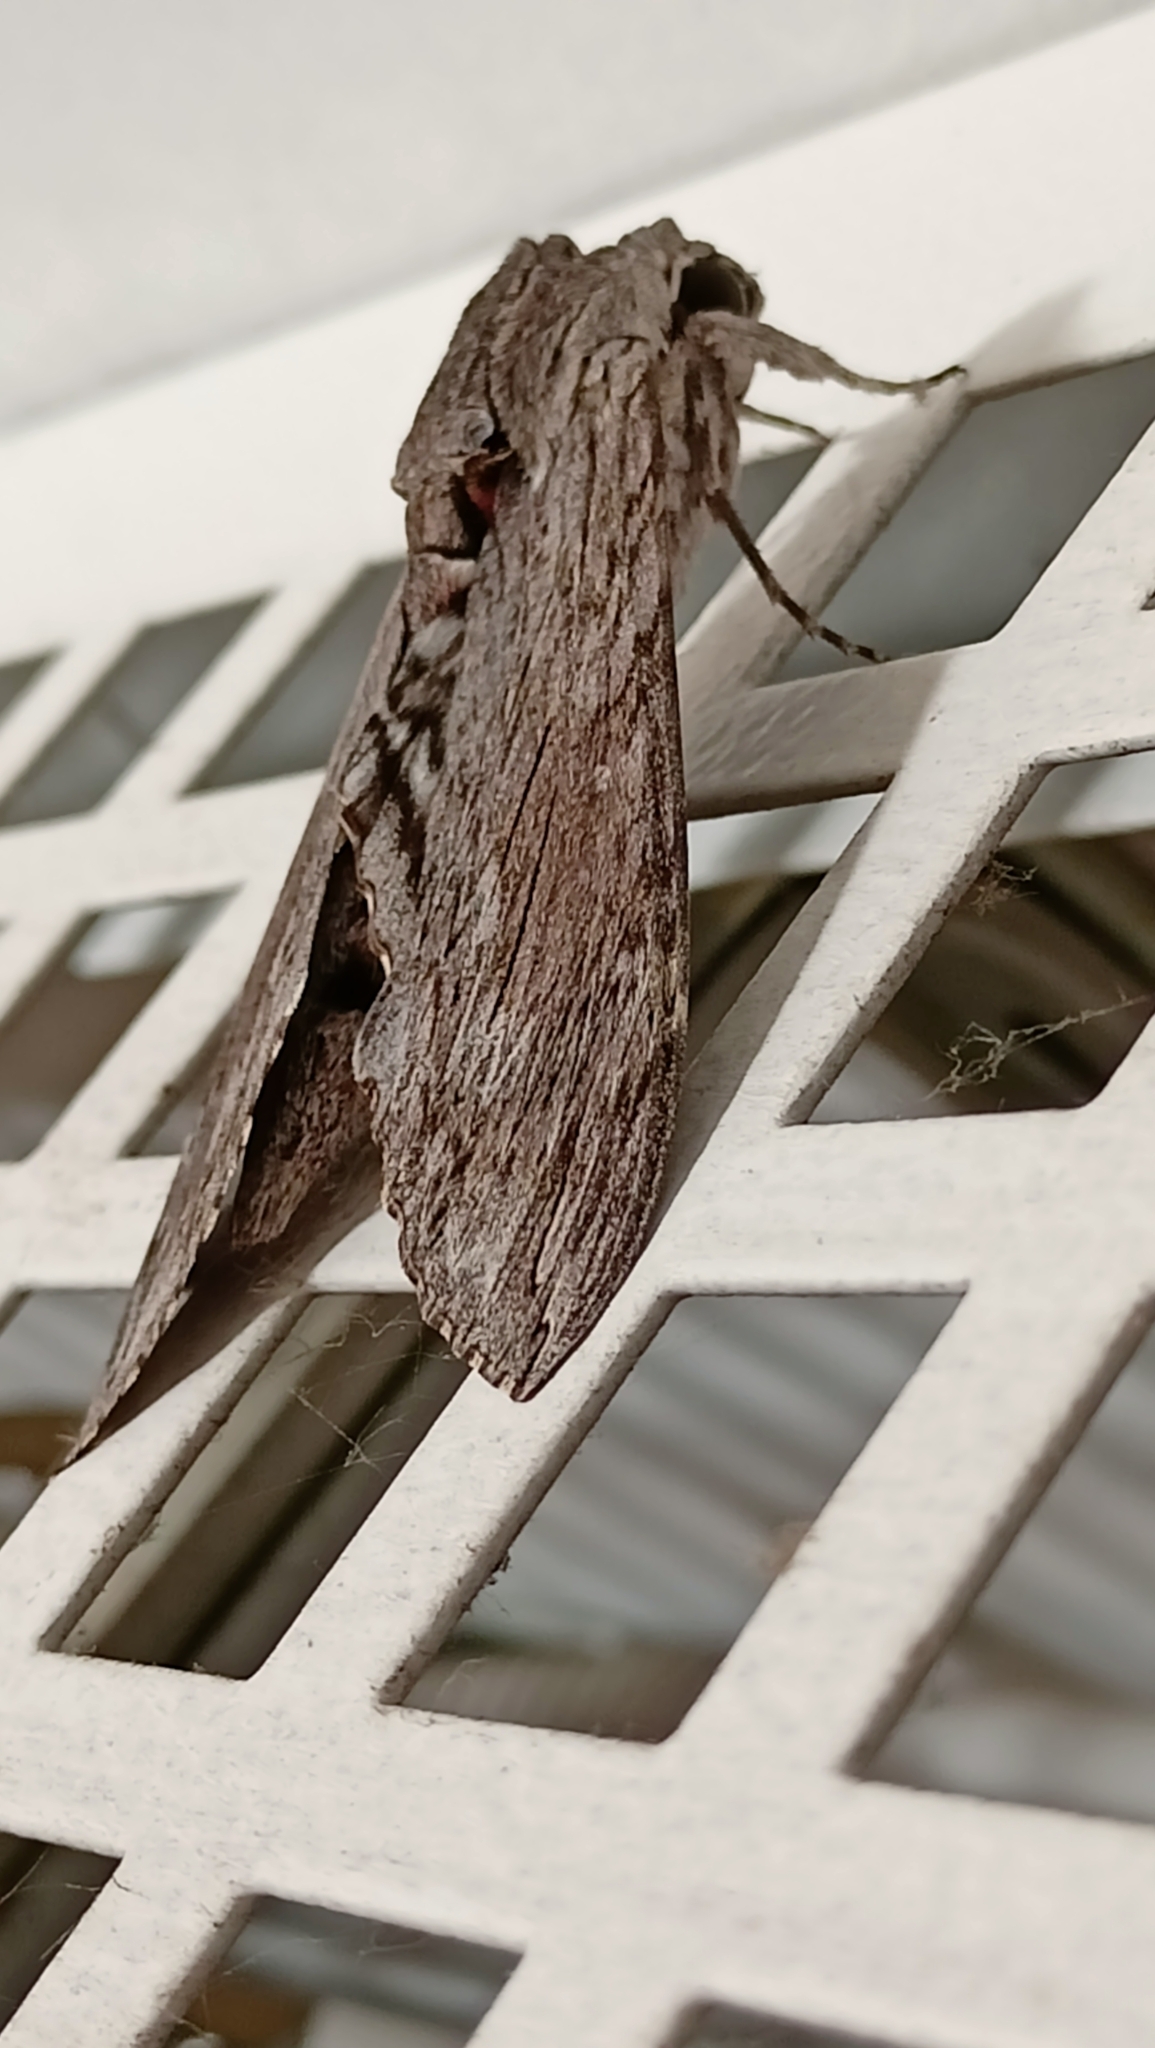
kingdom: Animalia
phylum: Arthropoda
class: Insecta
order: Lepidoptera
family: Sphingidae
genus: Agrius
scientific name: Agrius convolvuli
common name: Convolvulus hawkmoth
